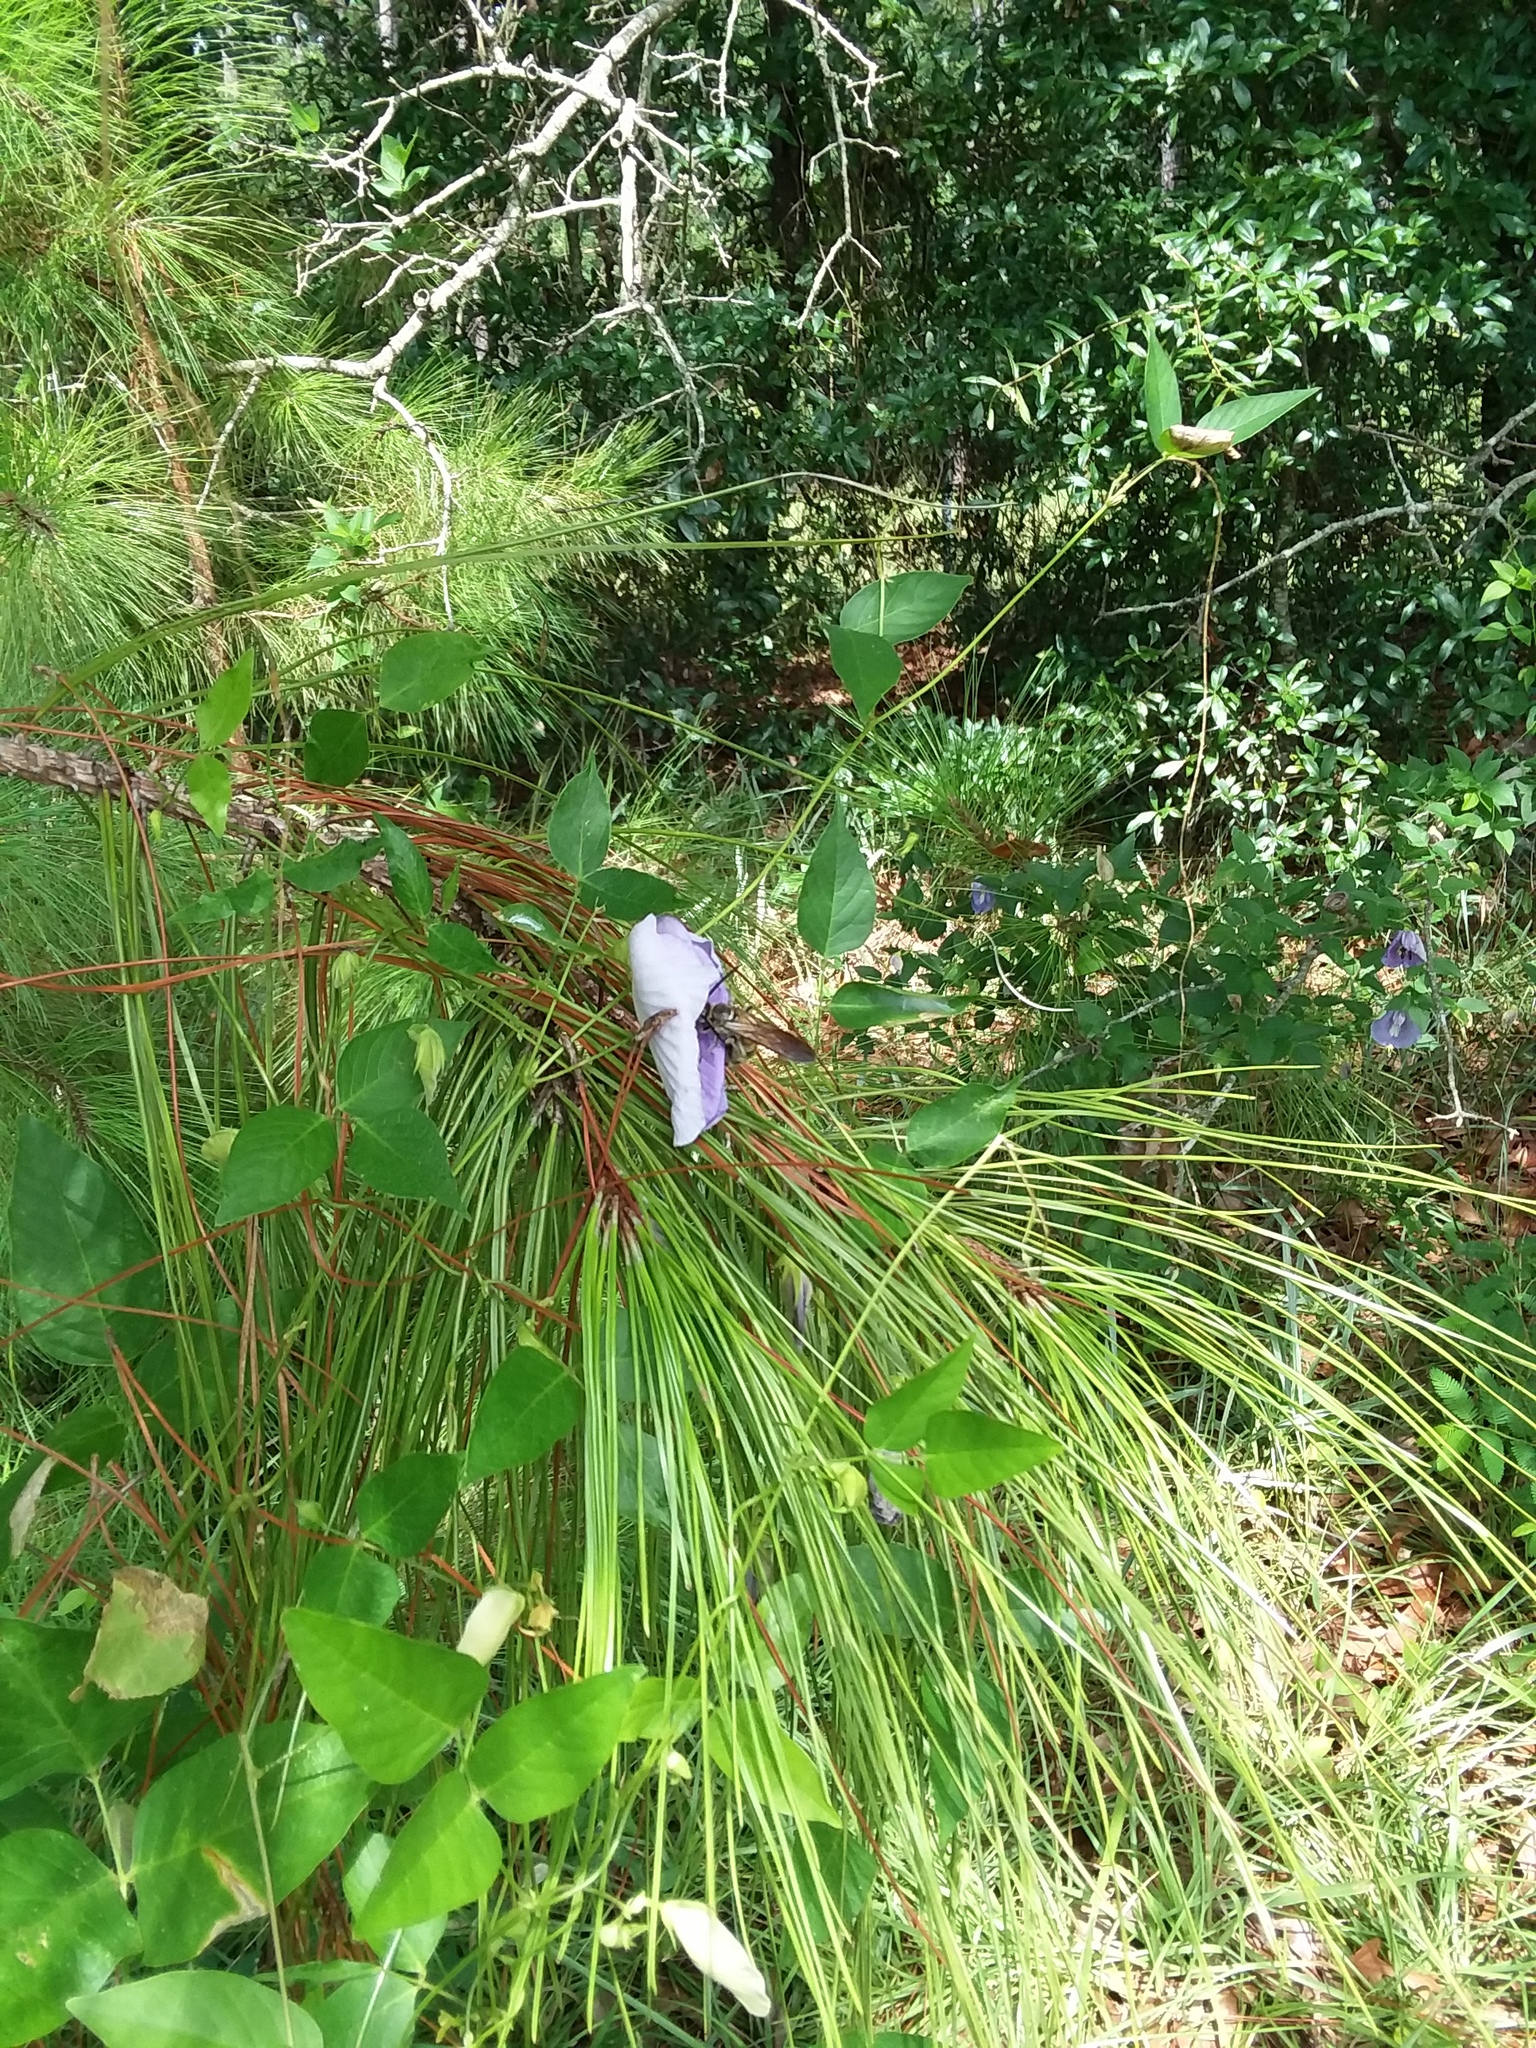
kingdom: Plantae
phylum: Tracheophyta
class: Magnoliopsida
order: Fabales
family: Fabaceae
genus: Centrosema
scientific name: Centrosema virginianum
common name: Butterfly-pea
